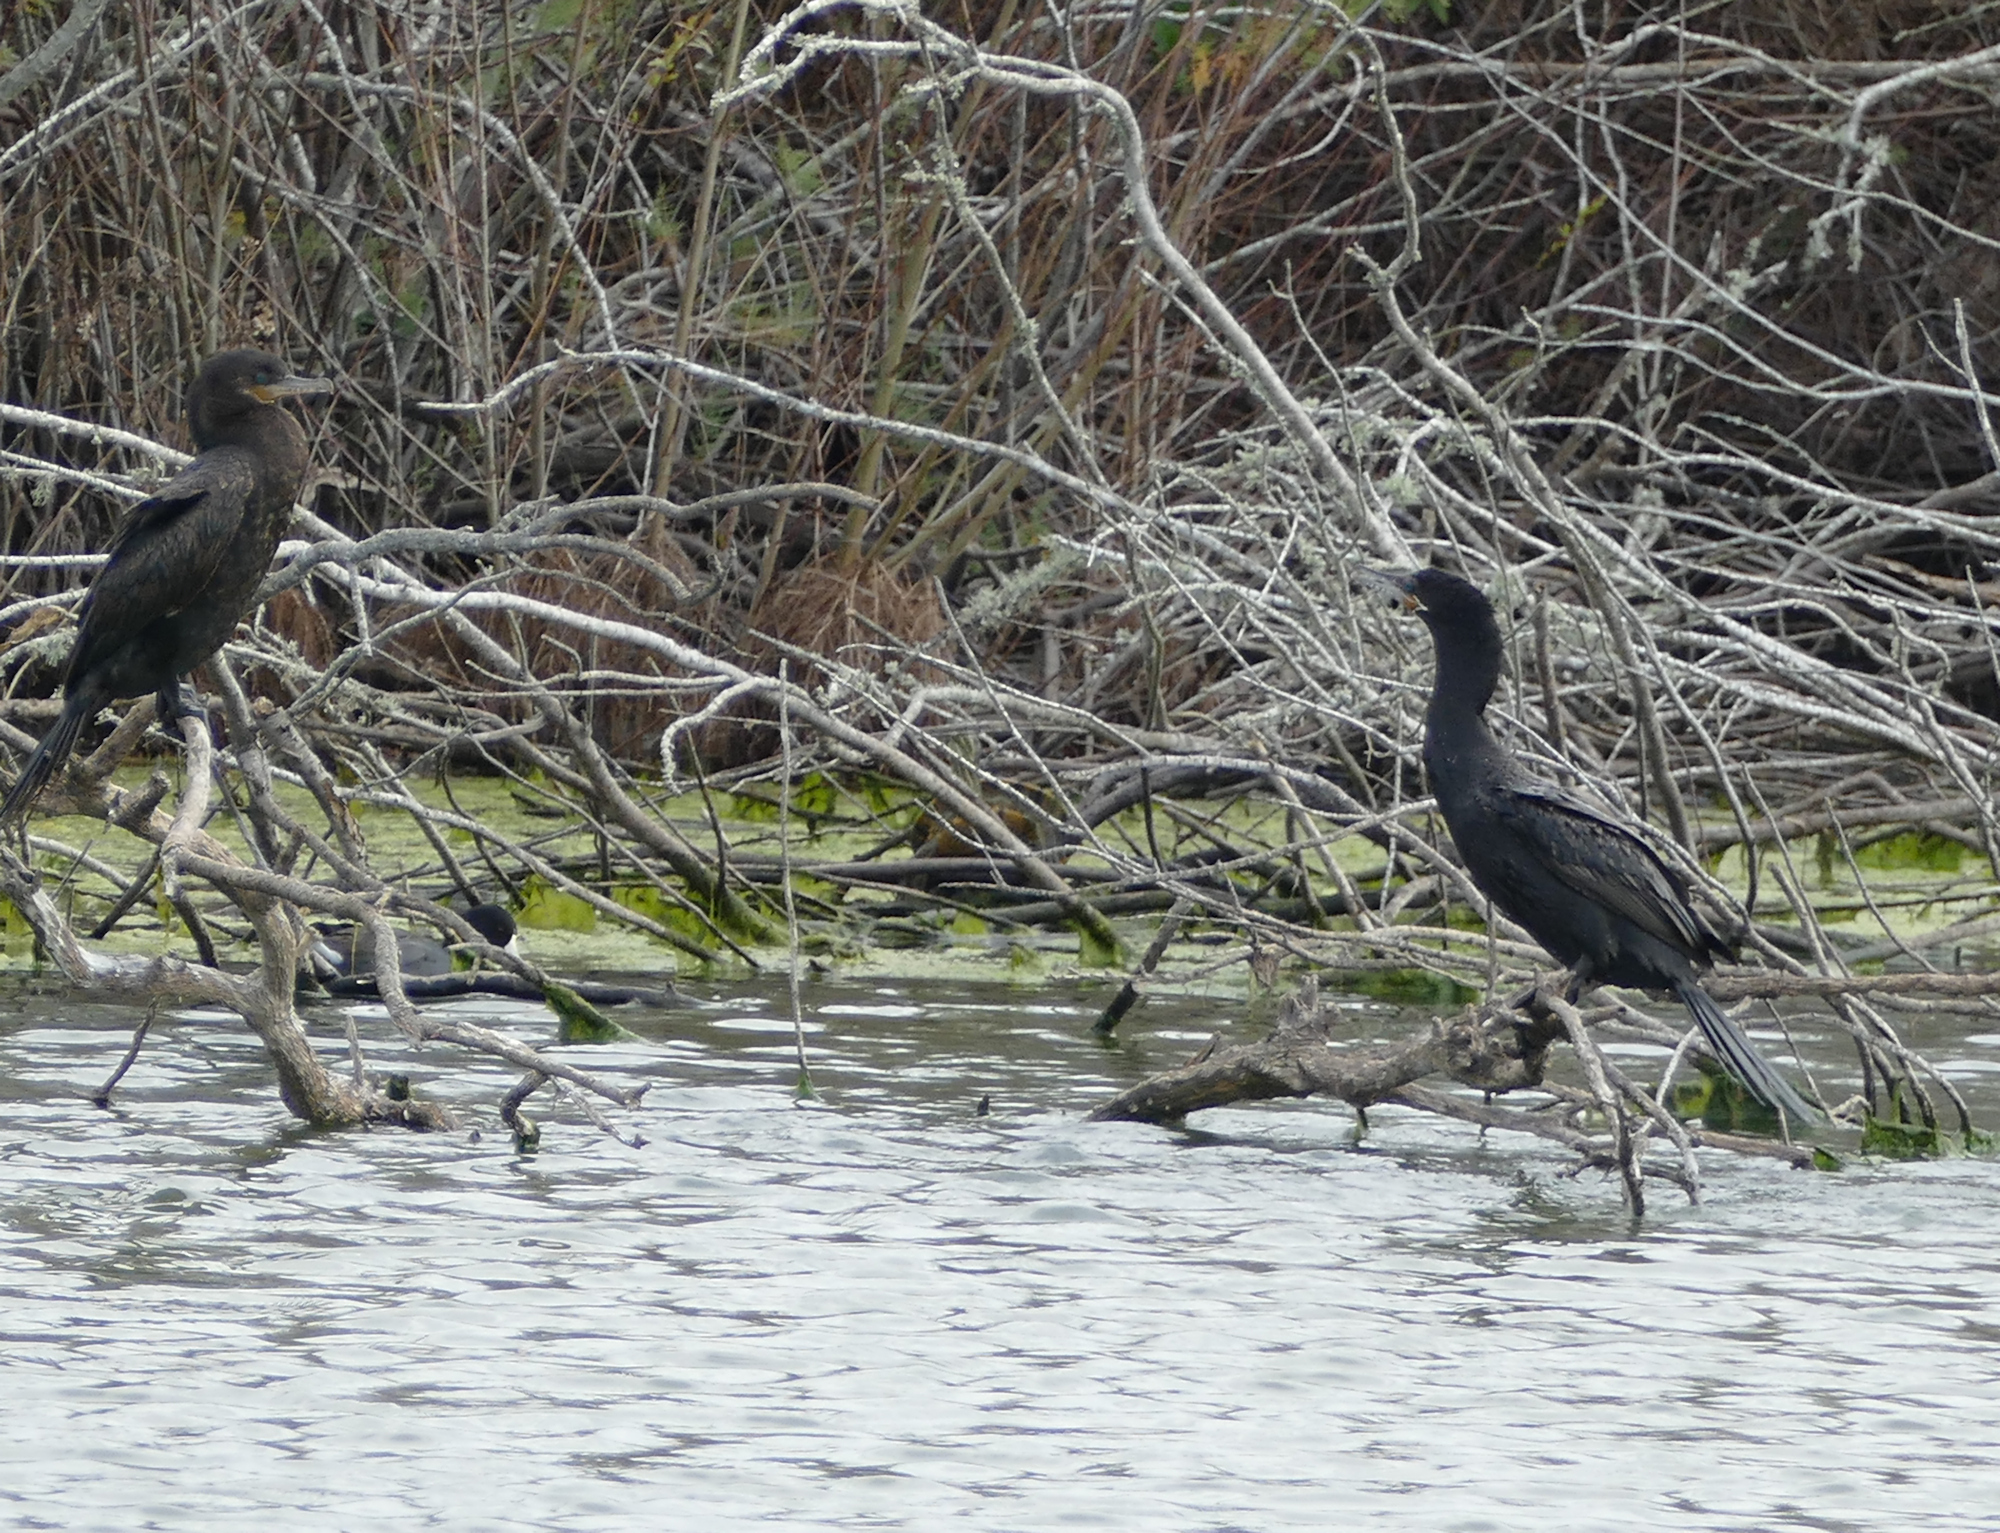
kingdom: Animalia
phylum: Chordata
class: Aves
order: Suliformes
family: Phalacrocoracidae
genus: Phalacrocorax
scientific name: Phalacrocorax brasilianus
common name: Neotropic cormorant
